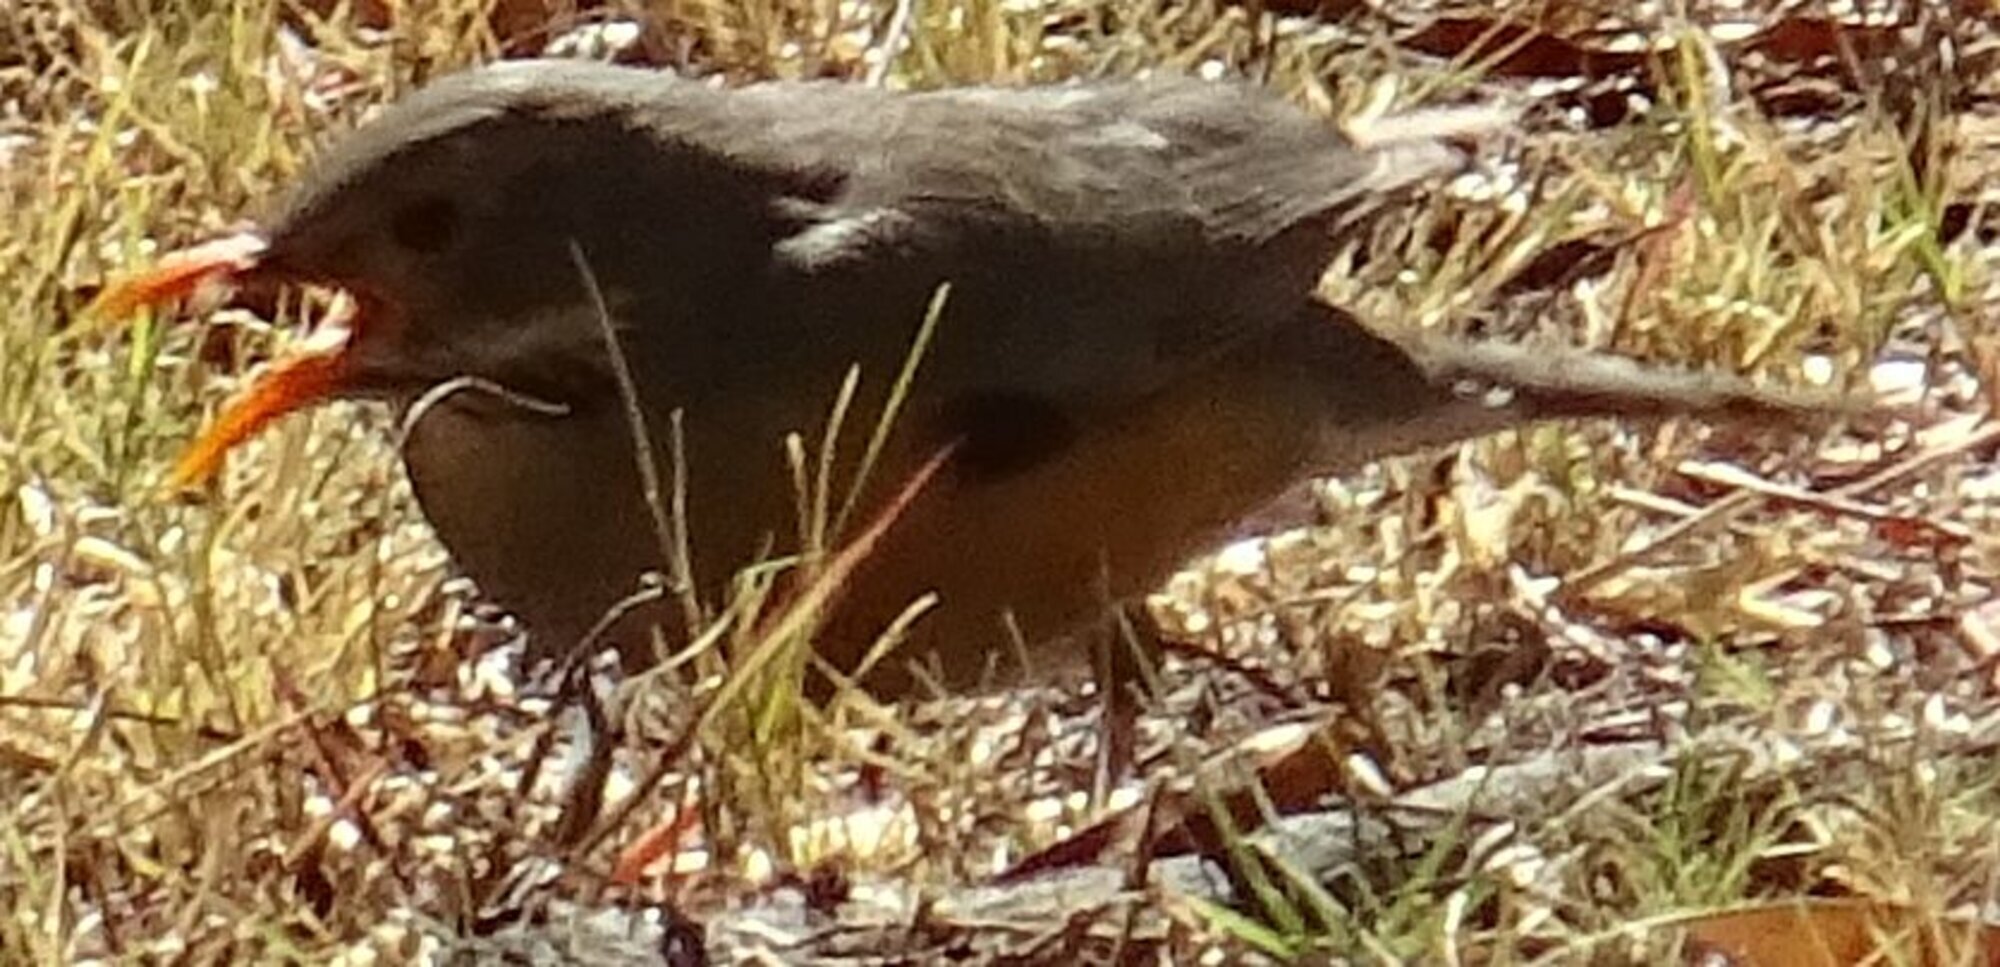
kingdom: Animalia
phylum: Chordata
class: Aves
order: Passeriformes
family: Turdidae
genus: Turdus
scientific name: Turdus libonyana
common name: Kurrichane thrush
